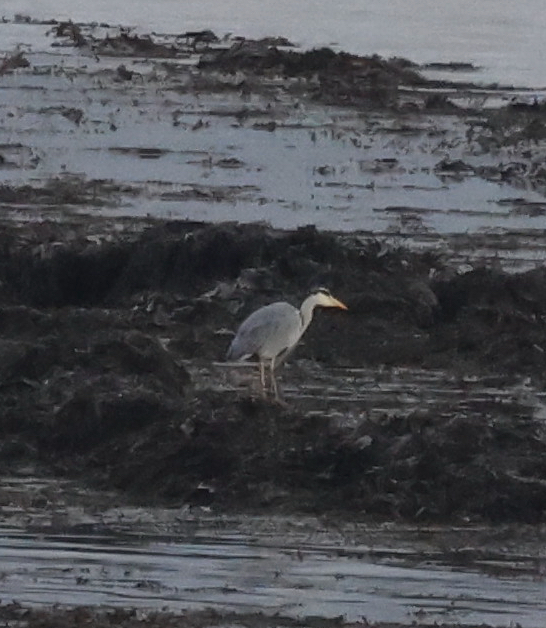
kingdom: Animalia
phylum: Chordata
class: Aves
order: Pelecaniformes
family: Ardeidae
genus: Ardea
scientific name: Ardea cinerea
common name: Grey heron
